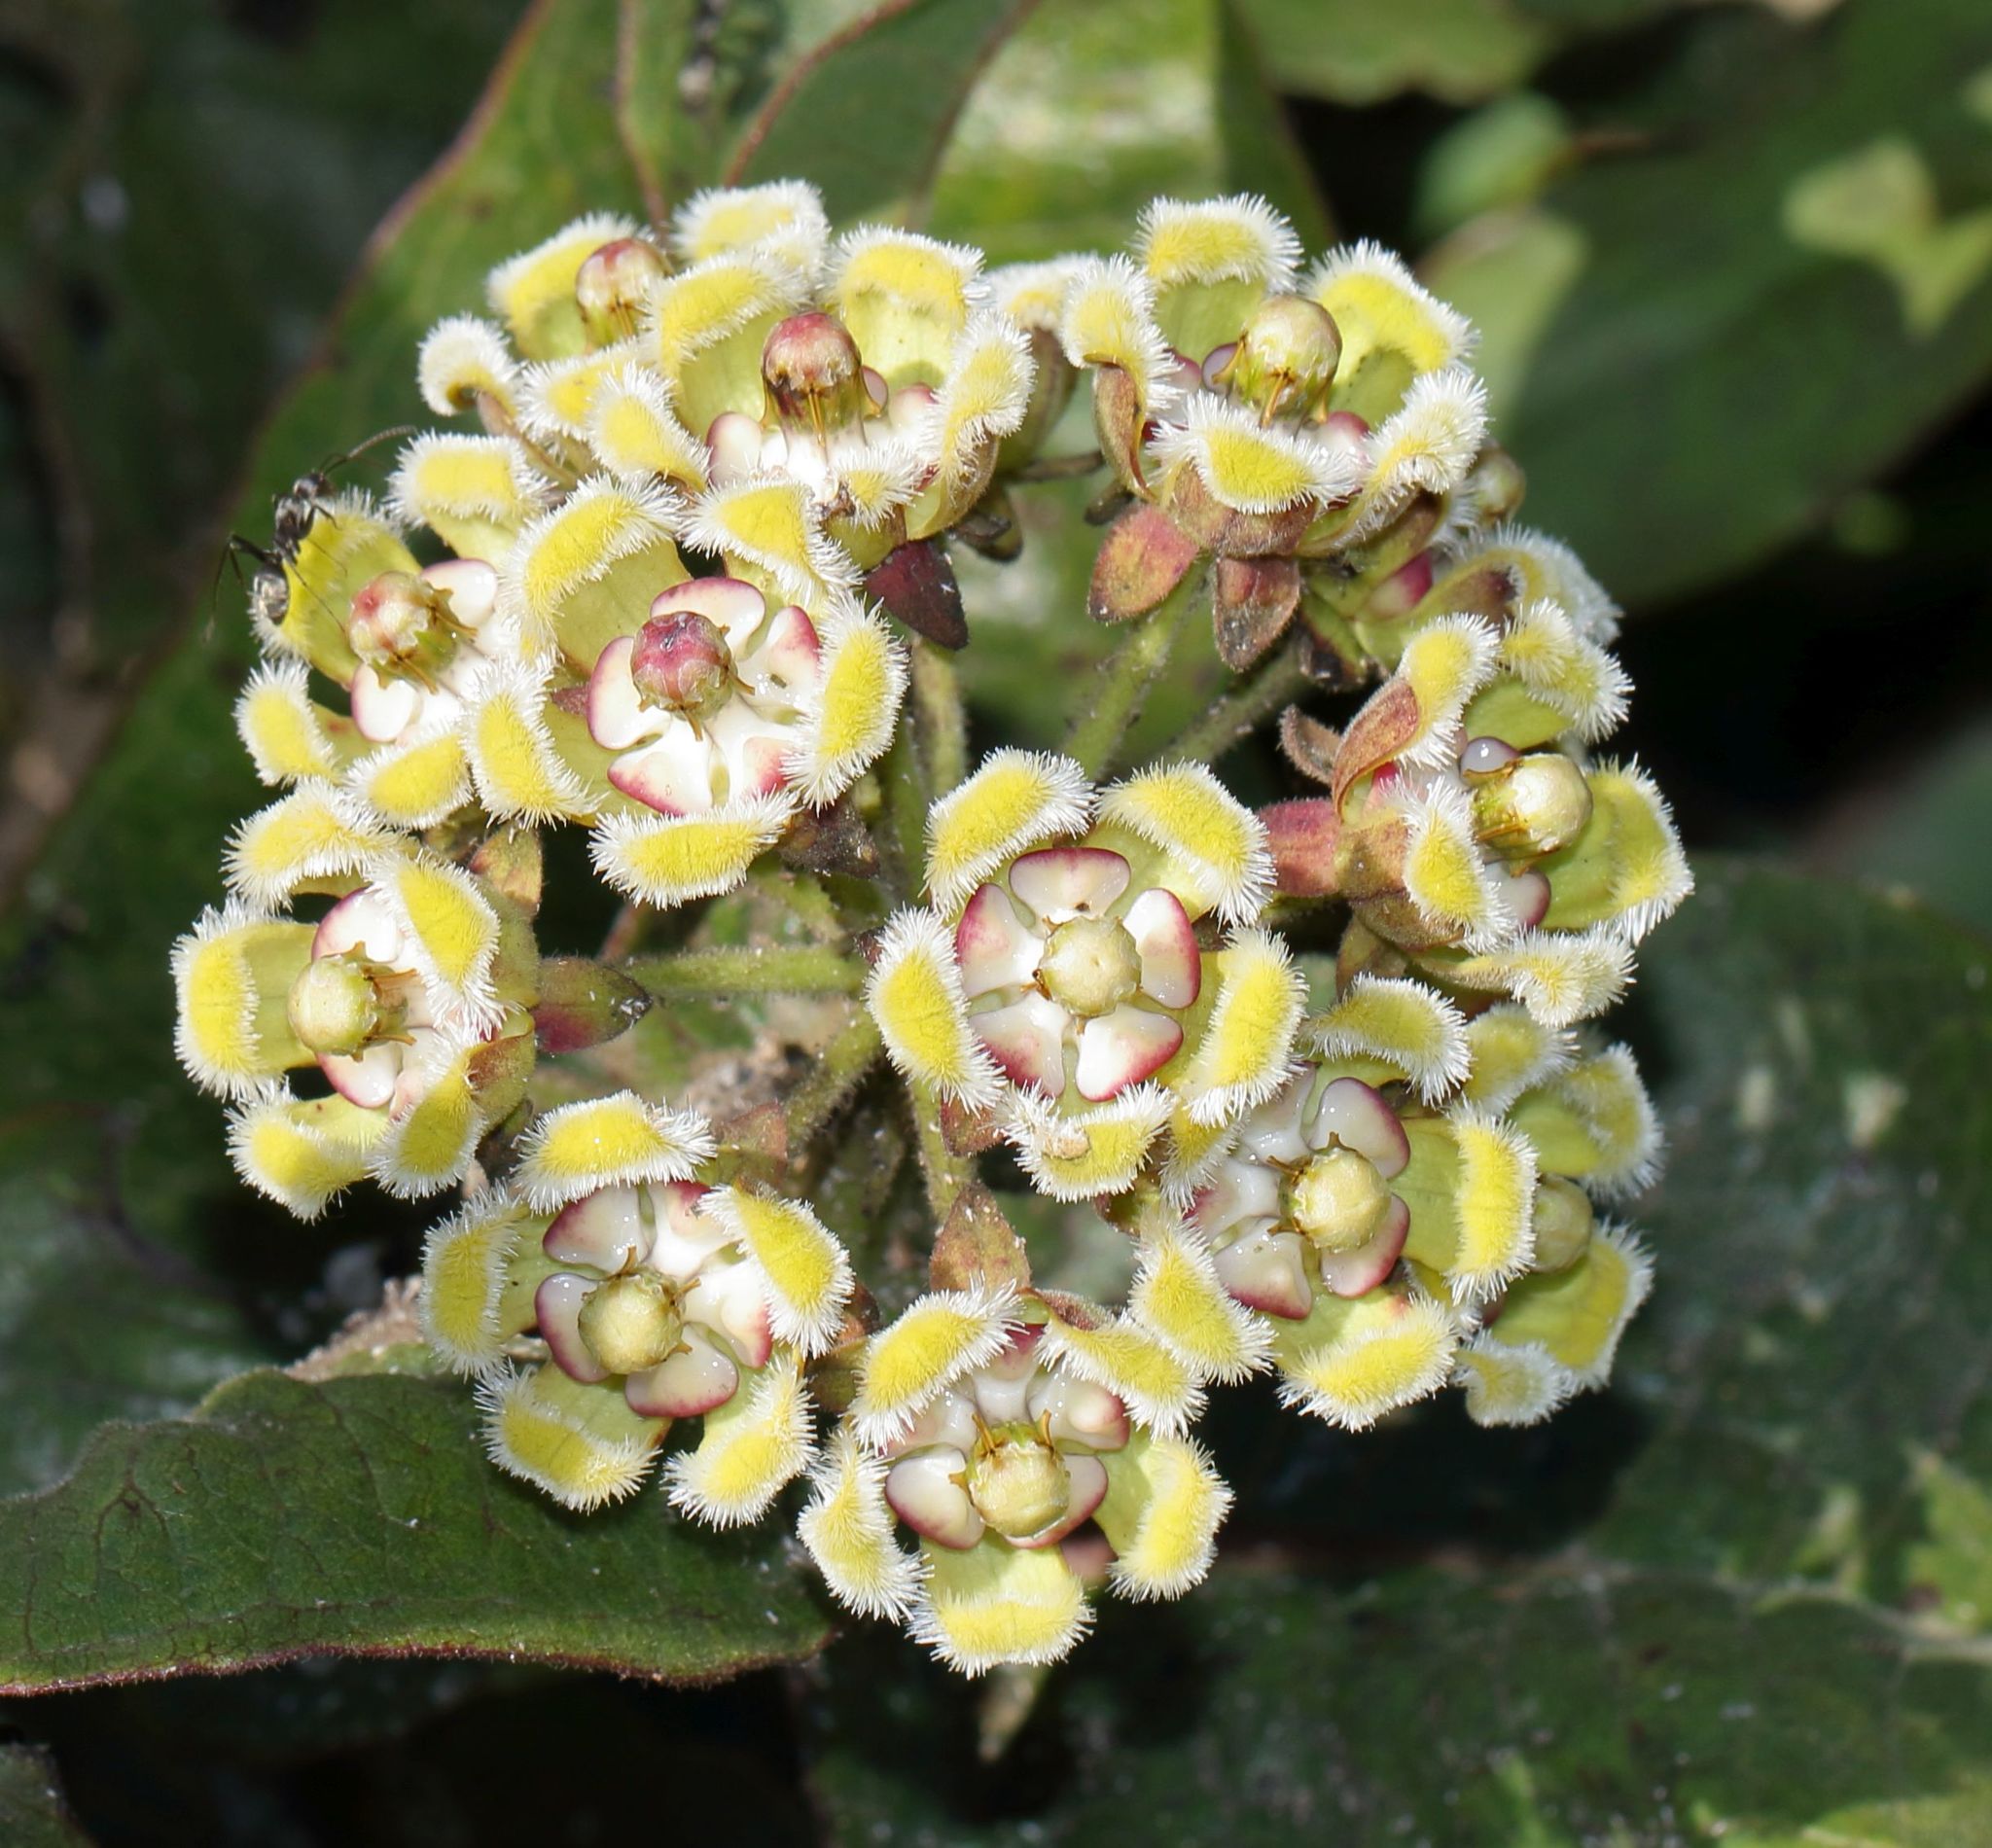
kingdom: Plantae
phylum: Tracheophyta
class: Magnoliopsida
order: Gentianales
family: Apocynaceae
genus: Xysmalobium
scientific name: Xysmalobium undulatum
